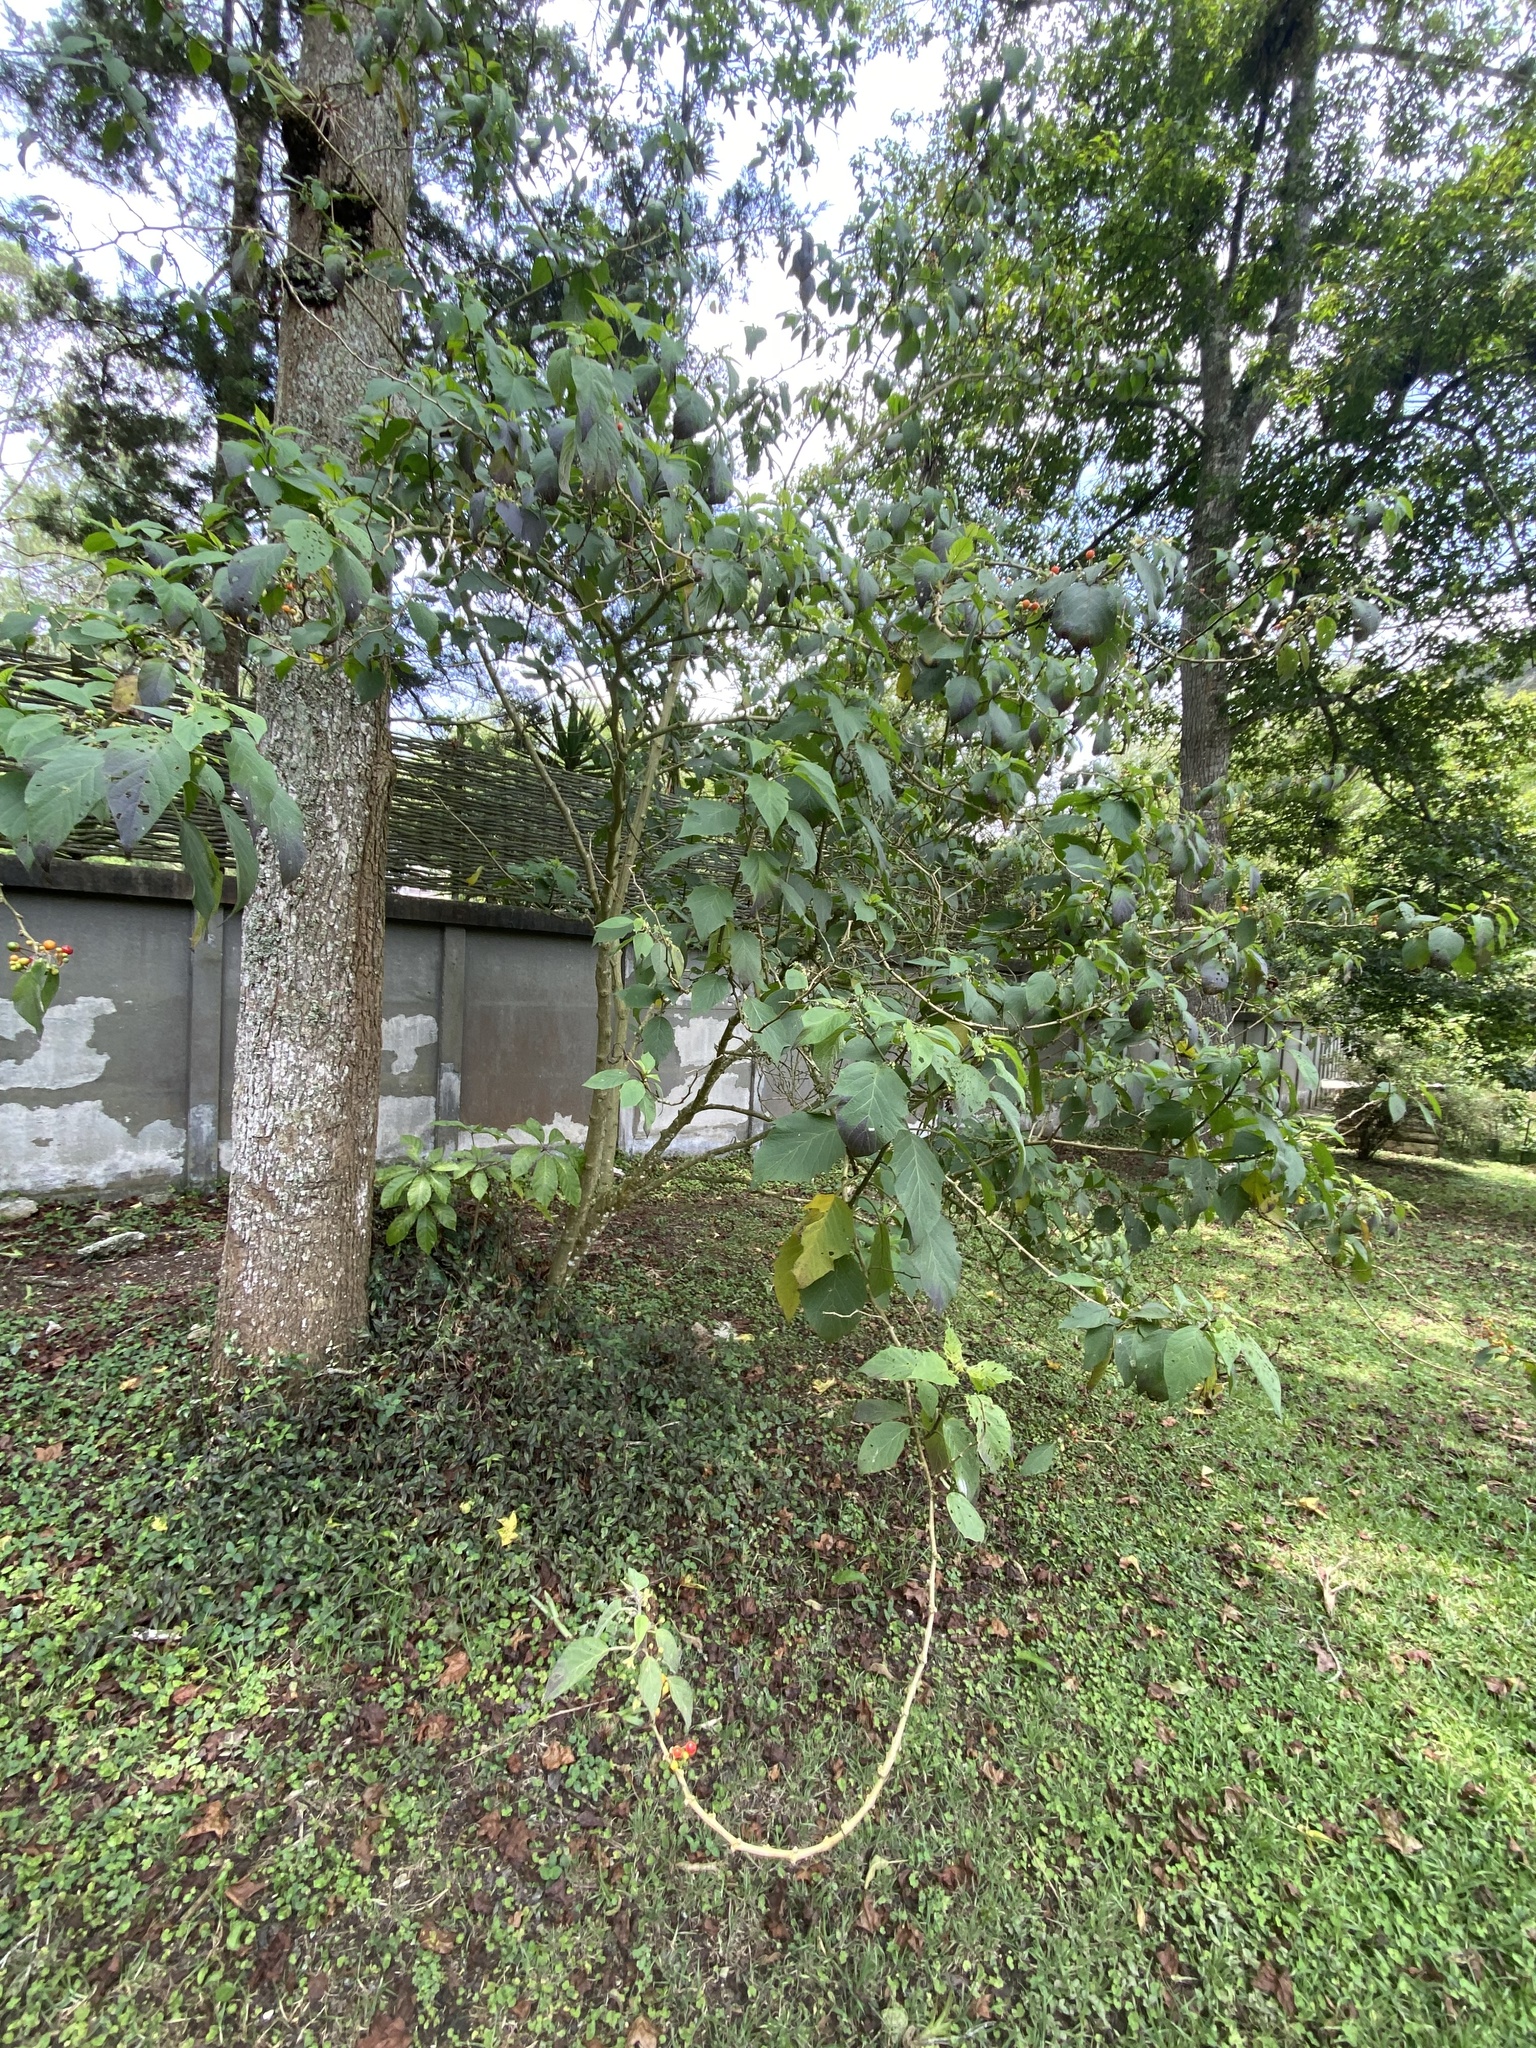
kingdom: Plantae
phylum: Tracheophyta
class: Magnoliopsida
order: Solanales
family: Solanaceae
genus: Witheringia
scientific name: Witheringia solanacea
